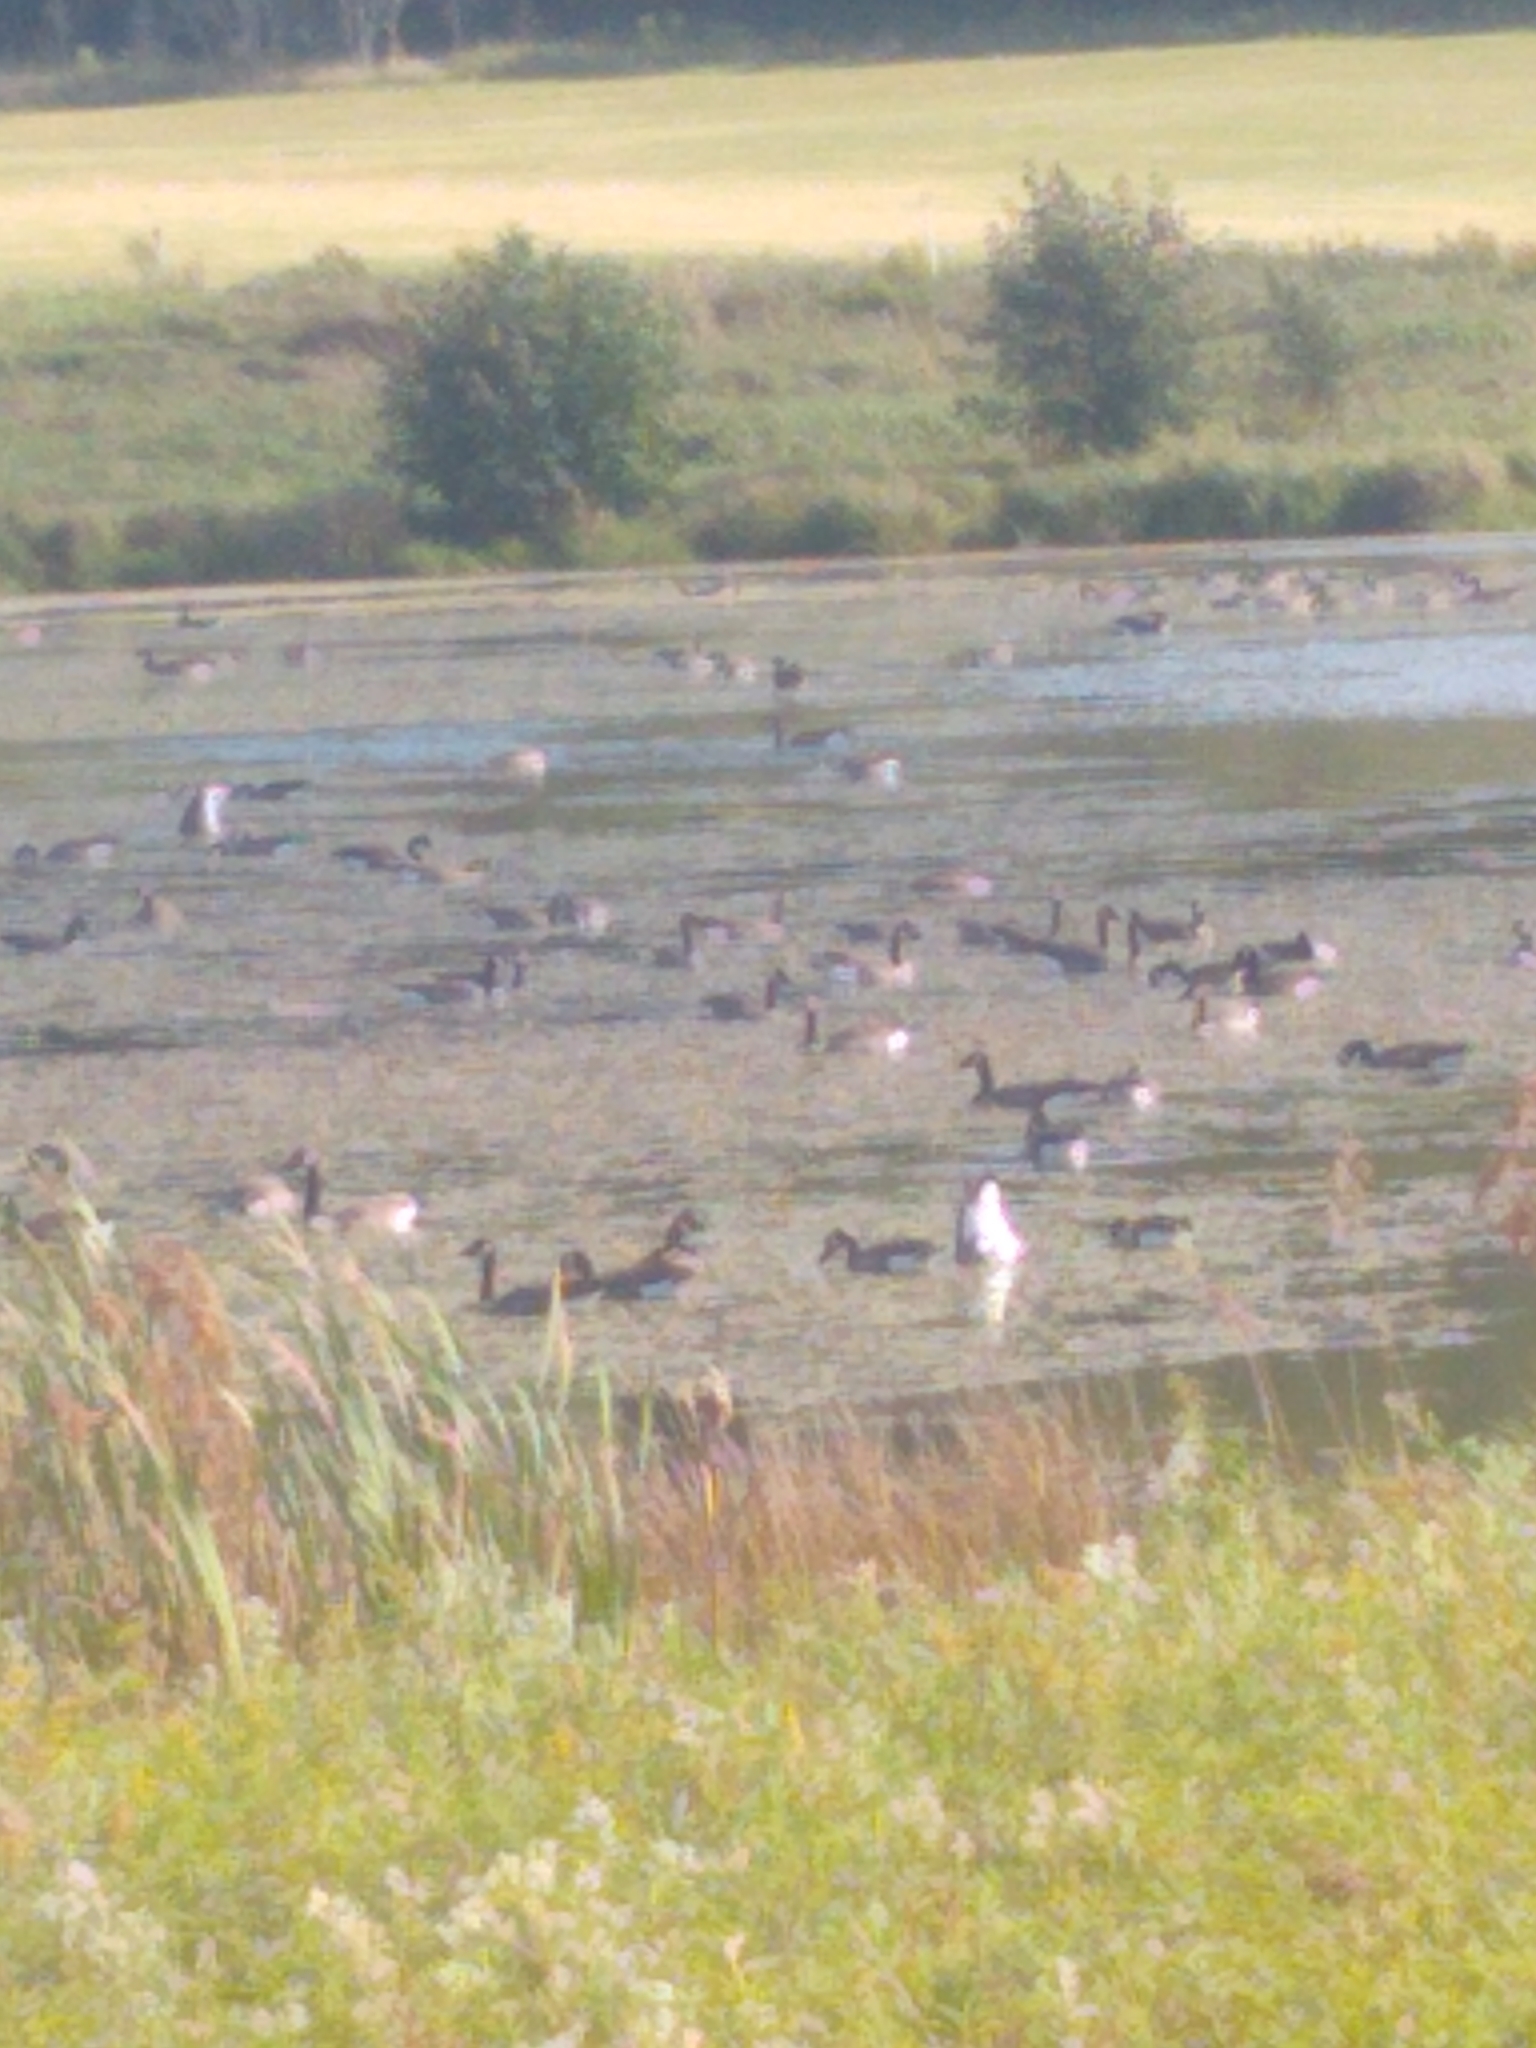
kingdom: Animalia
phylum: Chordata
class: Aves
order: Anseriformes
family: Anatidae
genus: Branta
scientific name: Branta canadensis
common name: Canada goose
